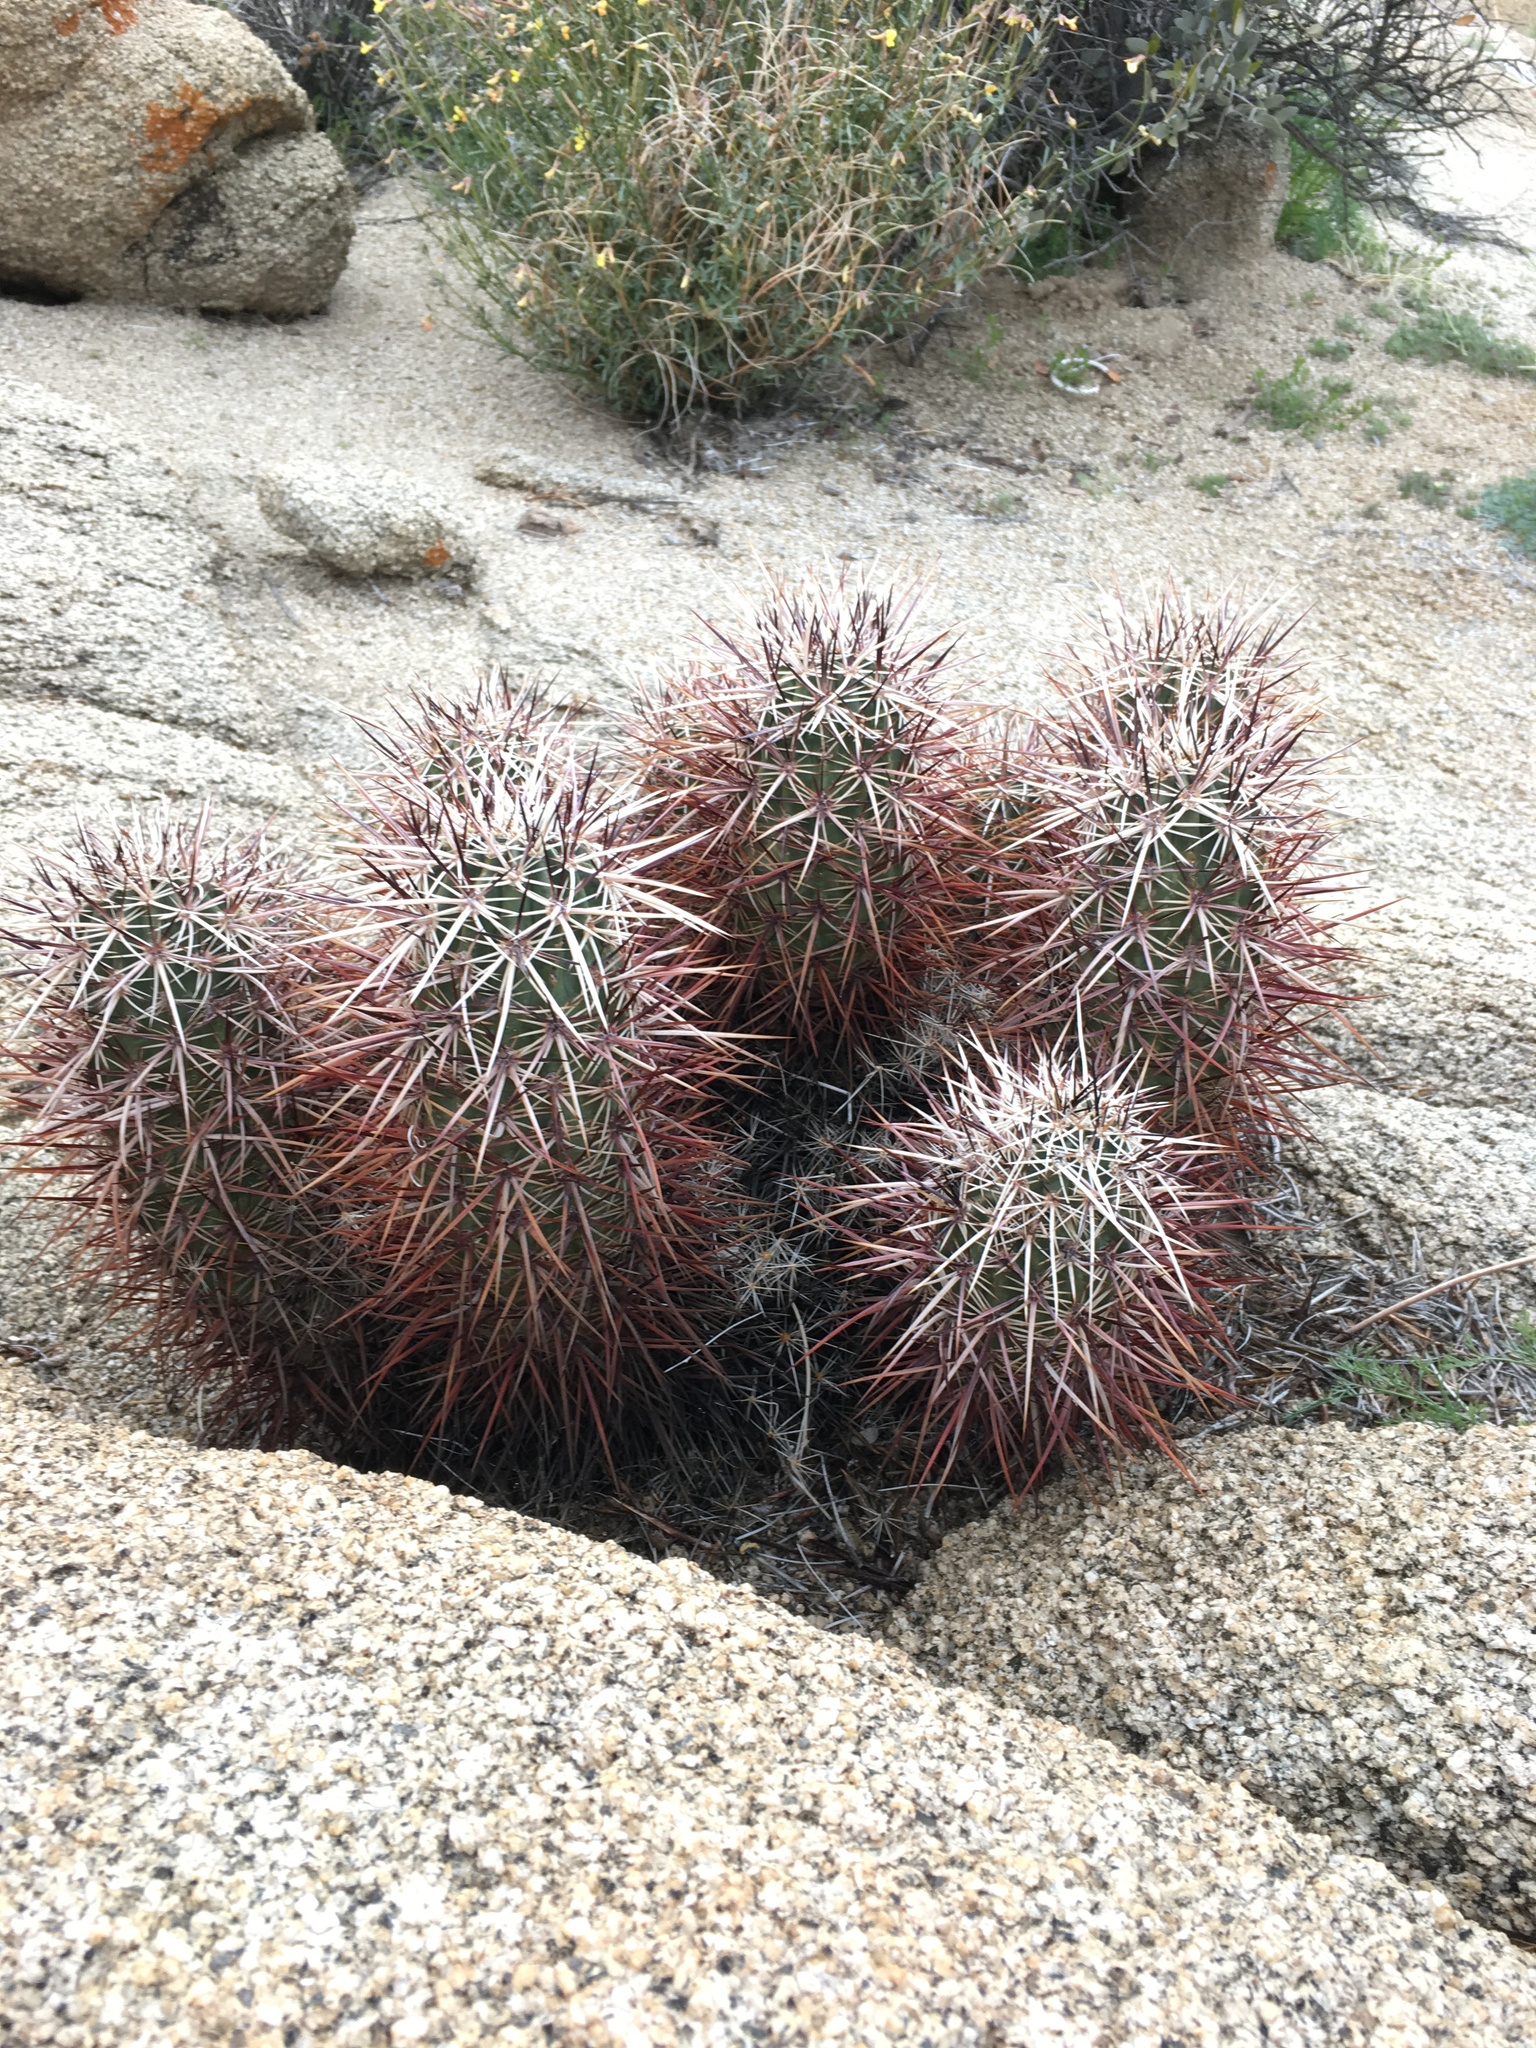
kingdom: Plantae
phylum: Tracheophyta
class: Magnoliopsida
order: Caryophyllales
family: Cactaceae
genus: Echinocereus
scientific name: Echinocereus engelmannii
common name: Engelmann's hedgehog cactus
